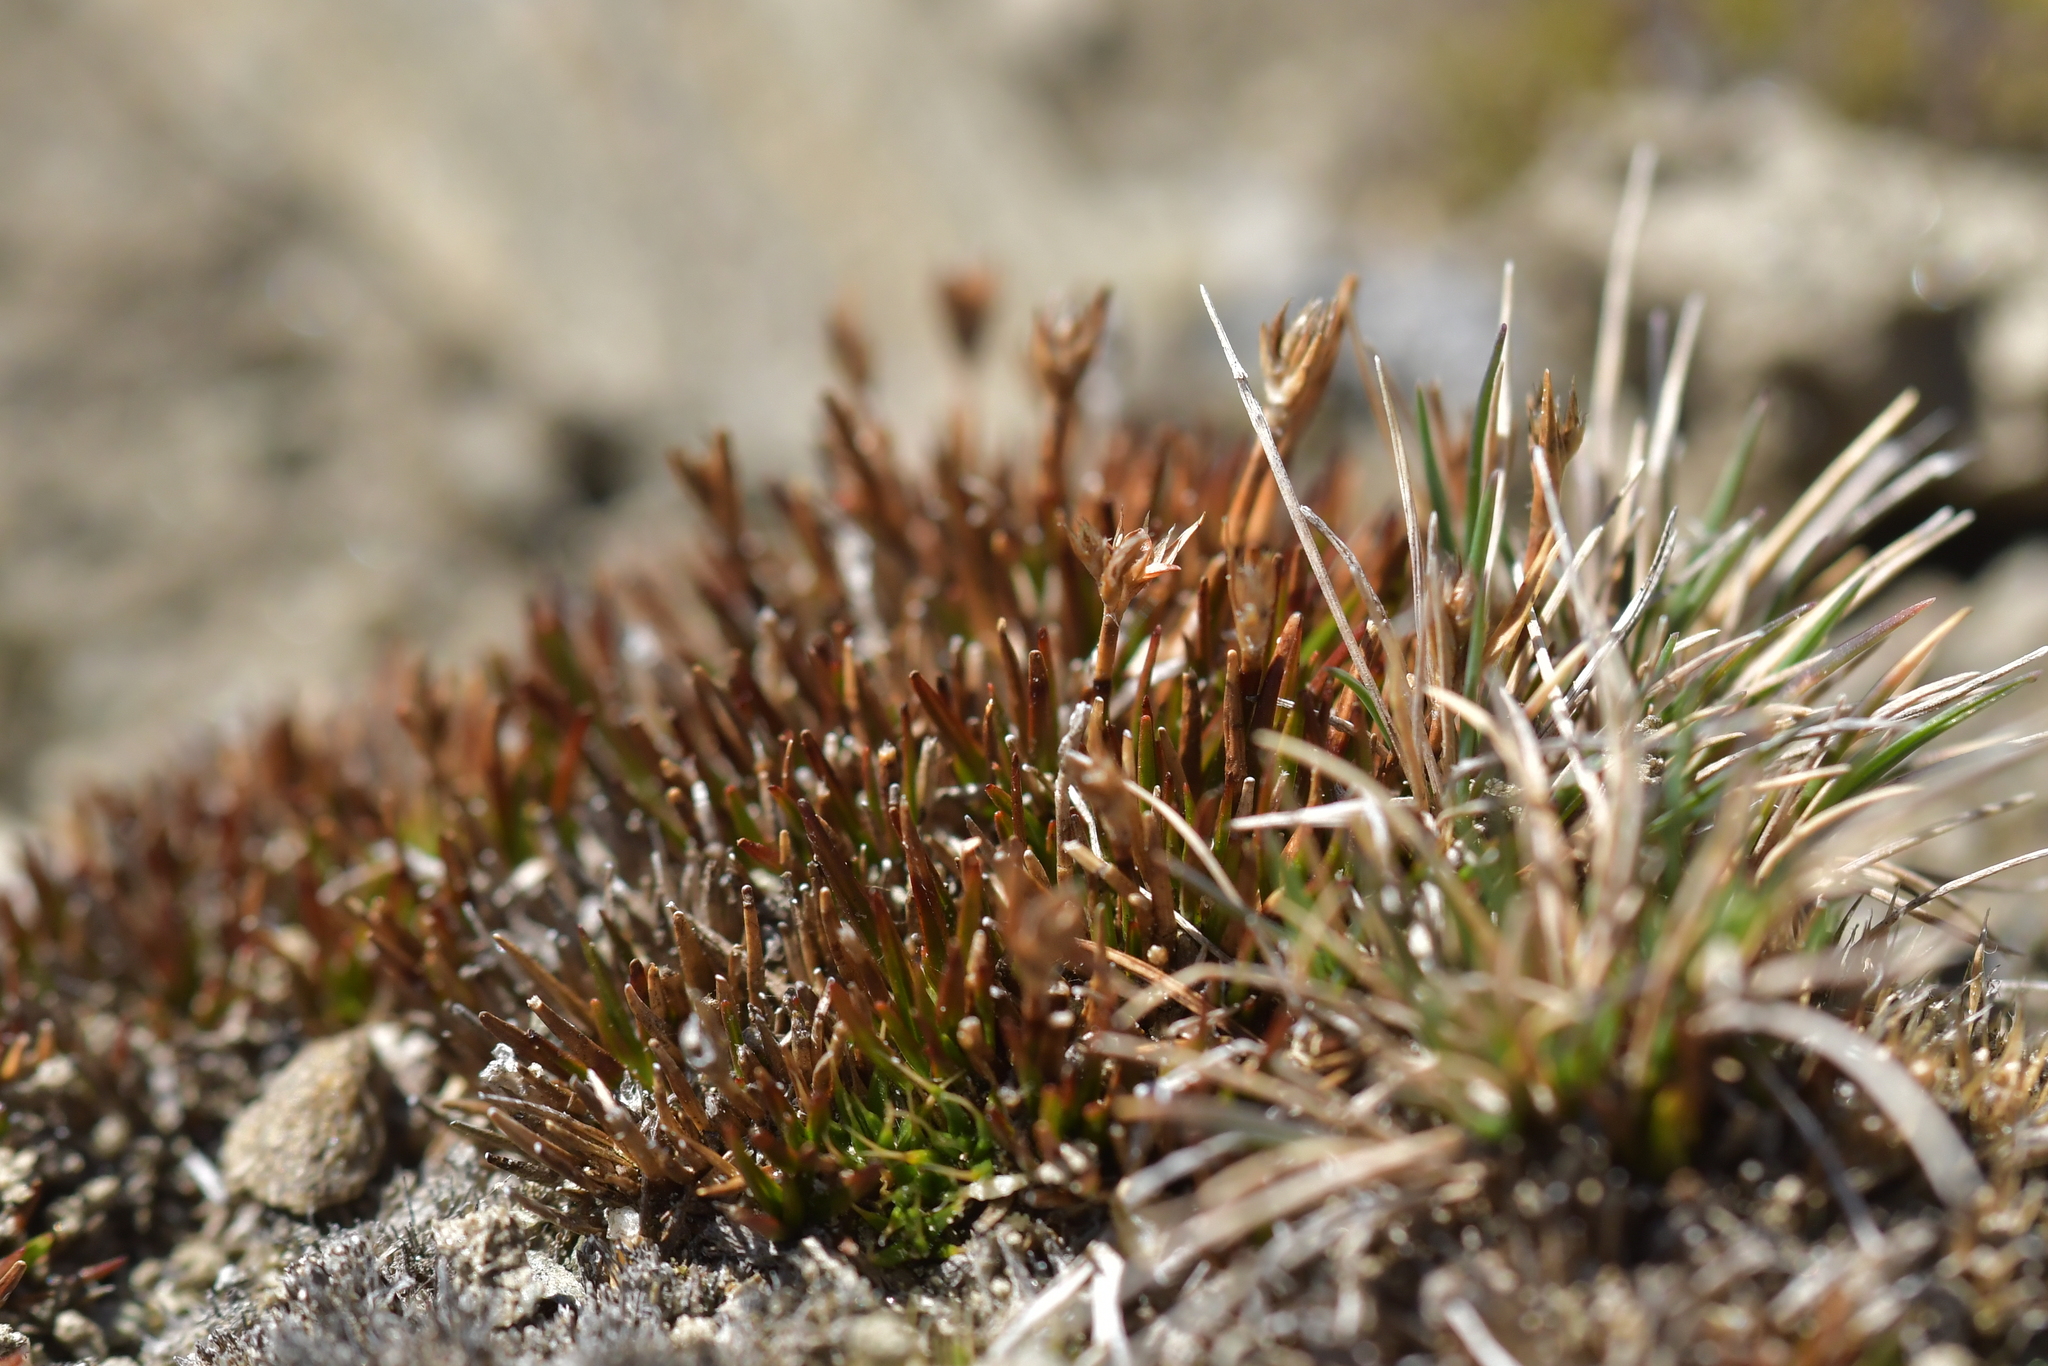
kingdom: Plantae
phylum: Tracheophyta
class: Liliopsida
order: Poales
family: Juncaceae
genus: Luzula
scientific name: Luzula pumila
